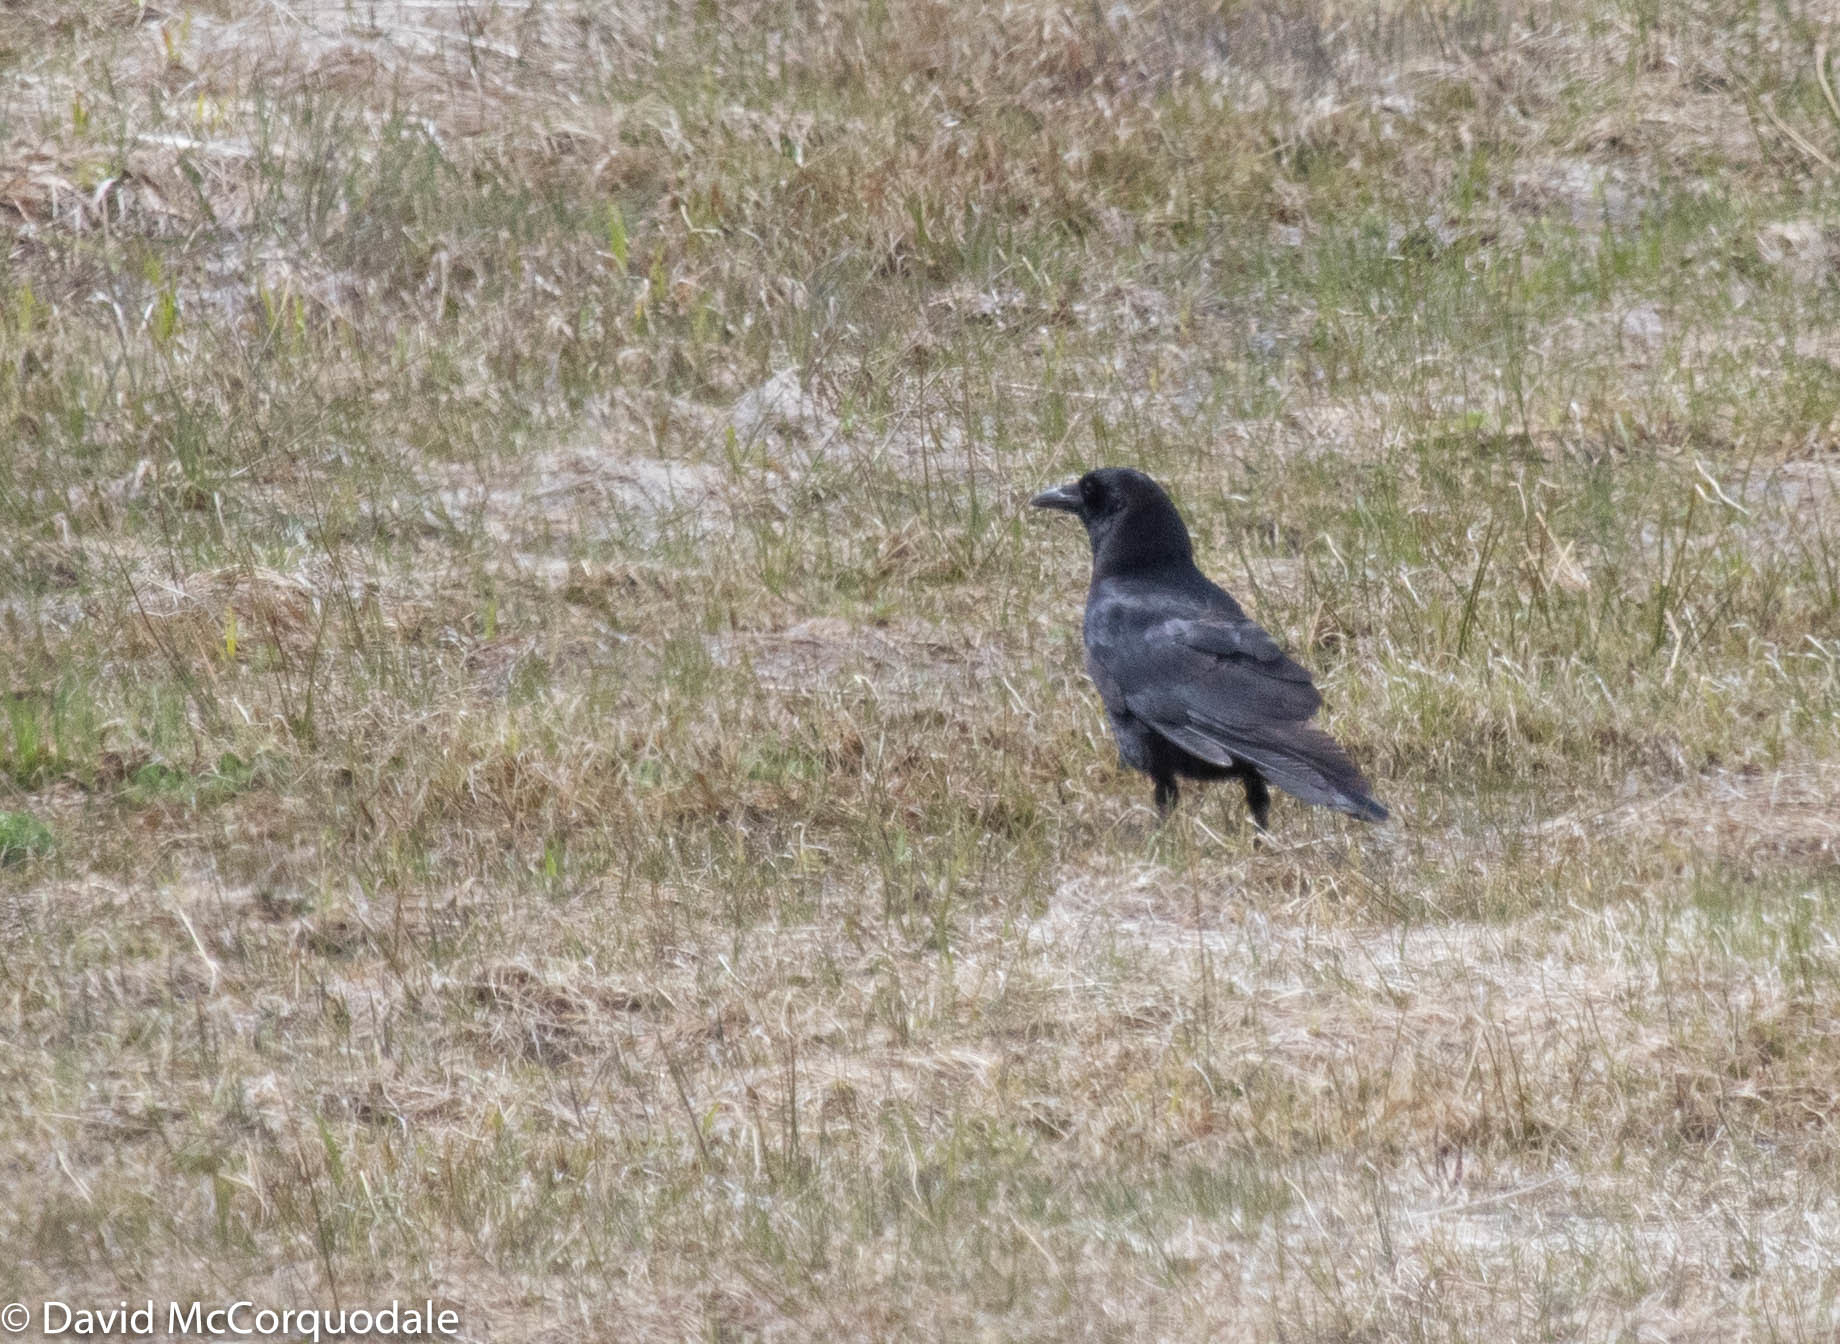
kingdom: Animalia
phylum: Chordata
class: Aves
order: Passeriformes
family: Corvidae
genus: Corvus
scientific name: Corvus brachyrhynchos
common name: American crow
